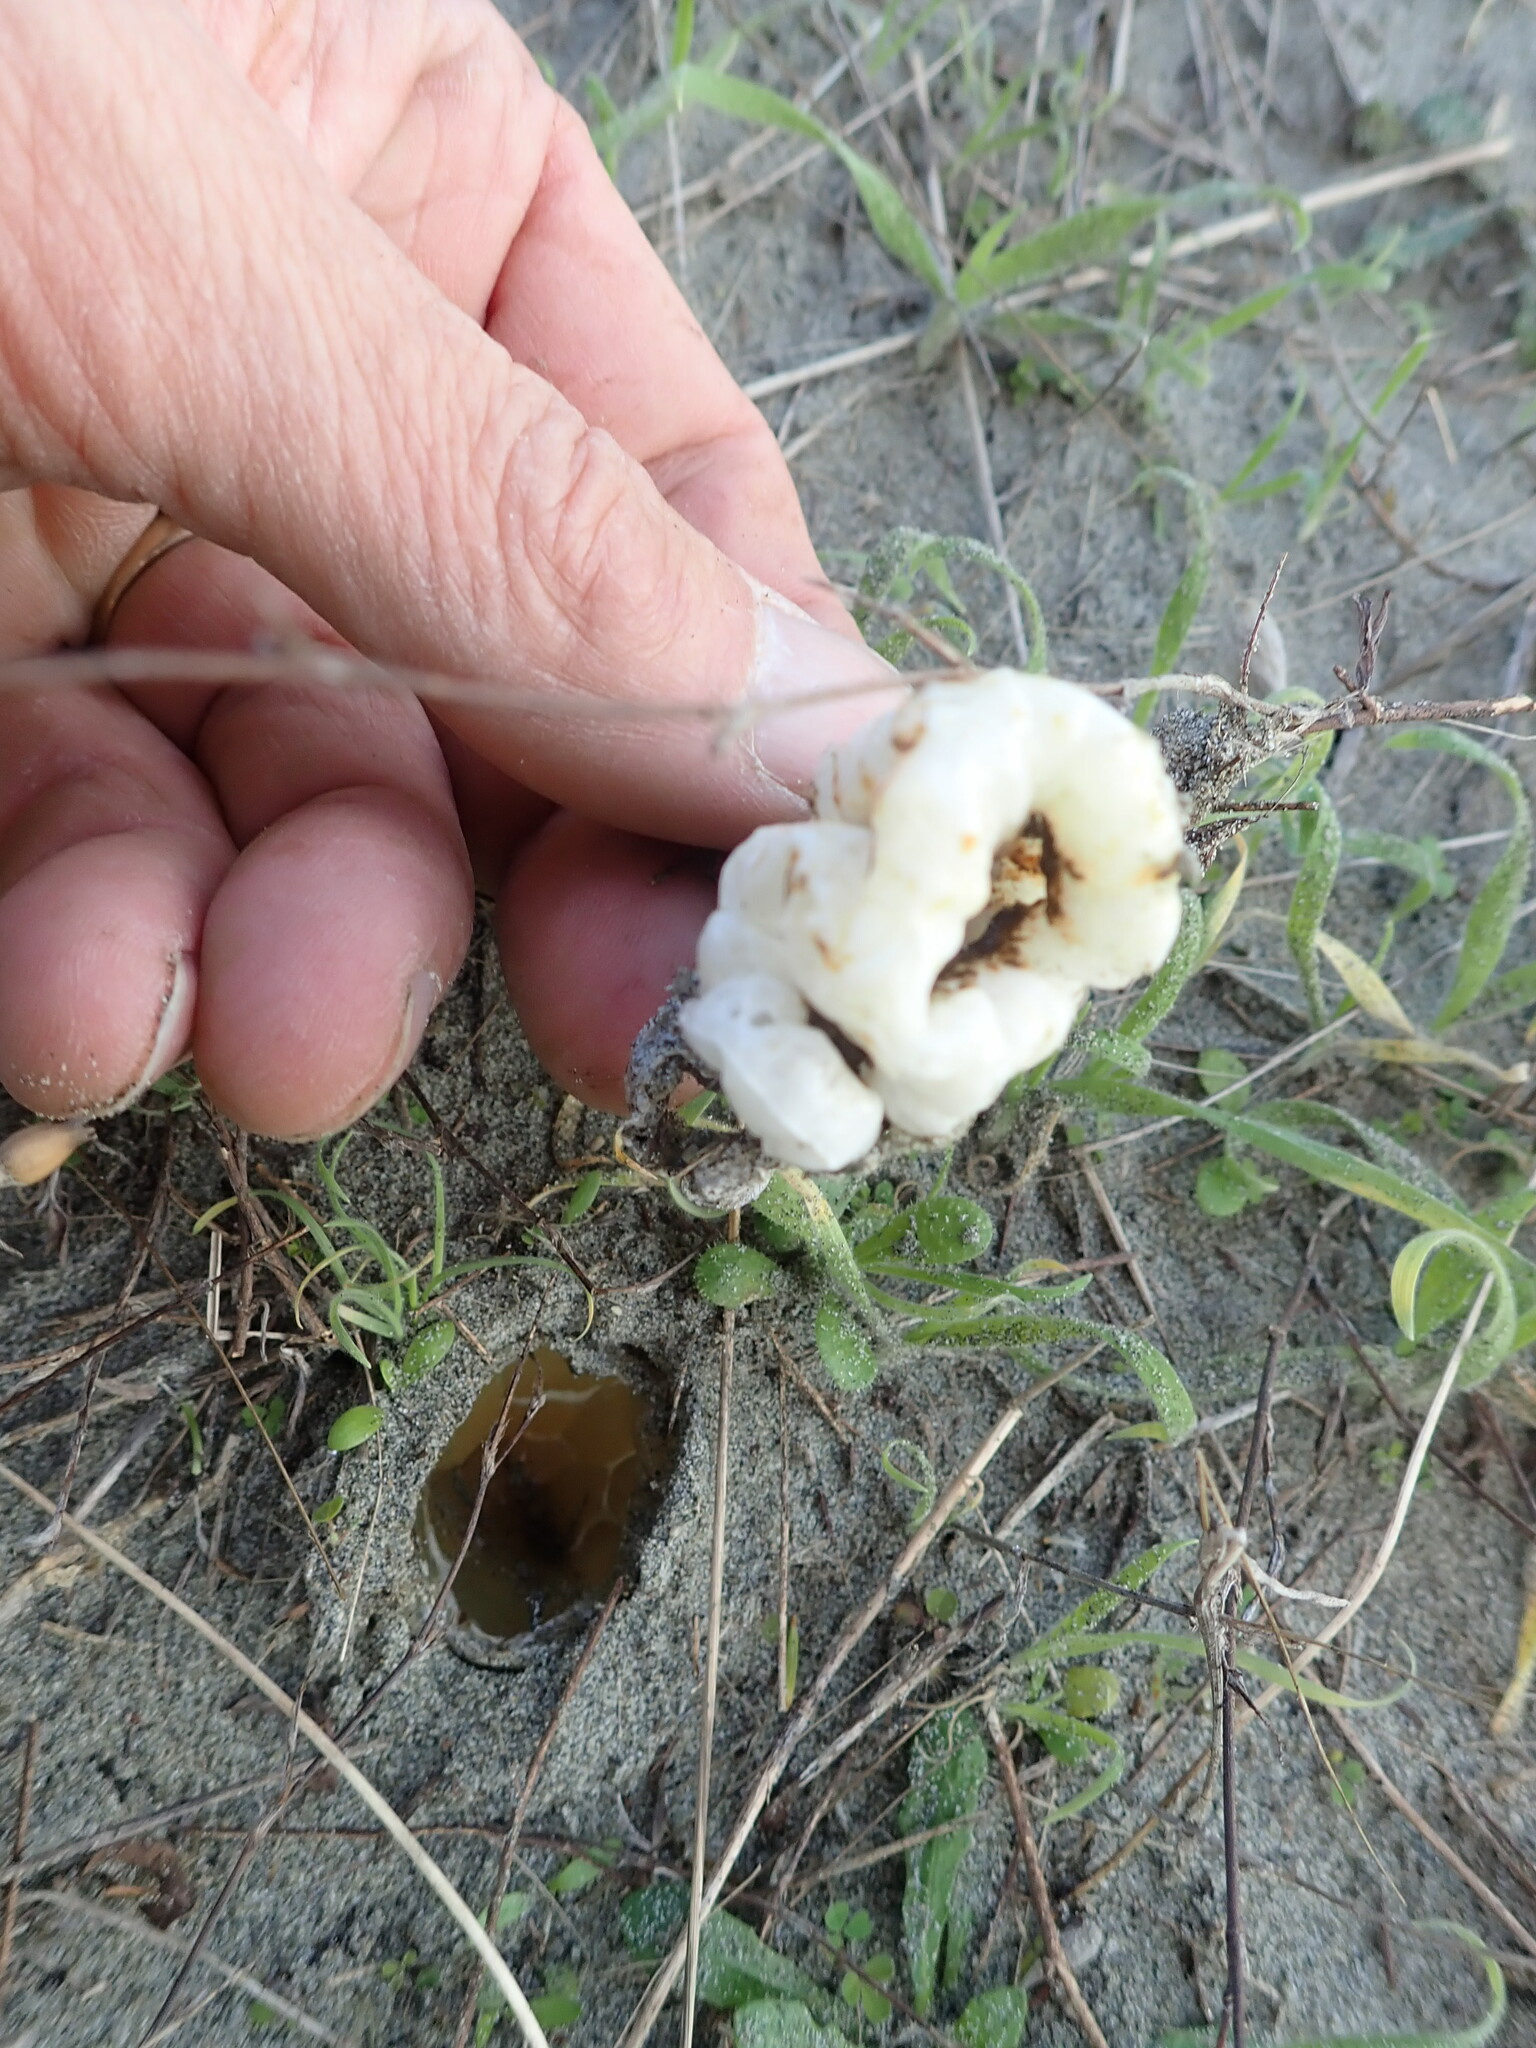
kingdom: Fungi
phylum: Basidiomycota
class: Agaricomycetes
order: Phallales
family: Phallaceae
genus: Ileodictyon
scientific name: Ileodictyon cibarium
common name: Basket fungus
